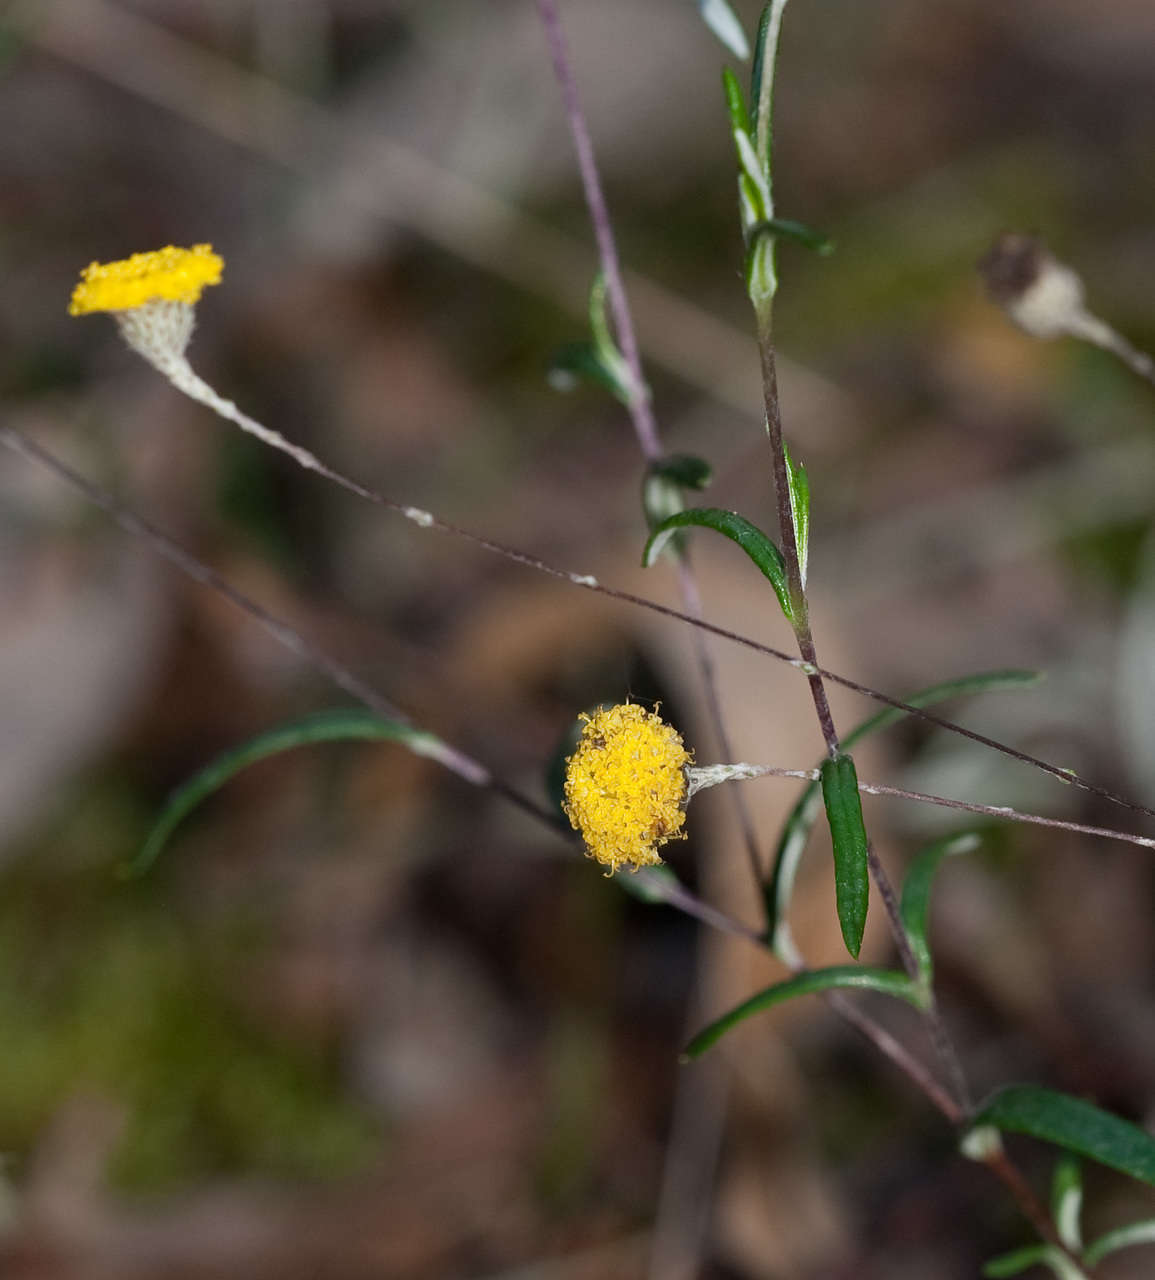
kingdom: Plantae
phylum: Tracheophyta
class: Magnoliopsida
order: Asterales
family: Asteraceae
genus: Leptorhynchos
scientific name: Leptorhynchos tenuifolius
